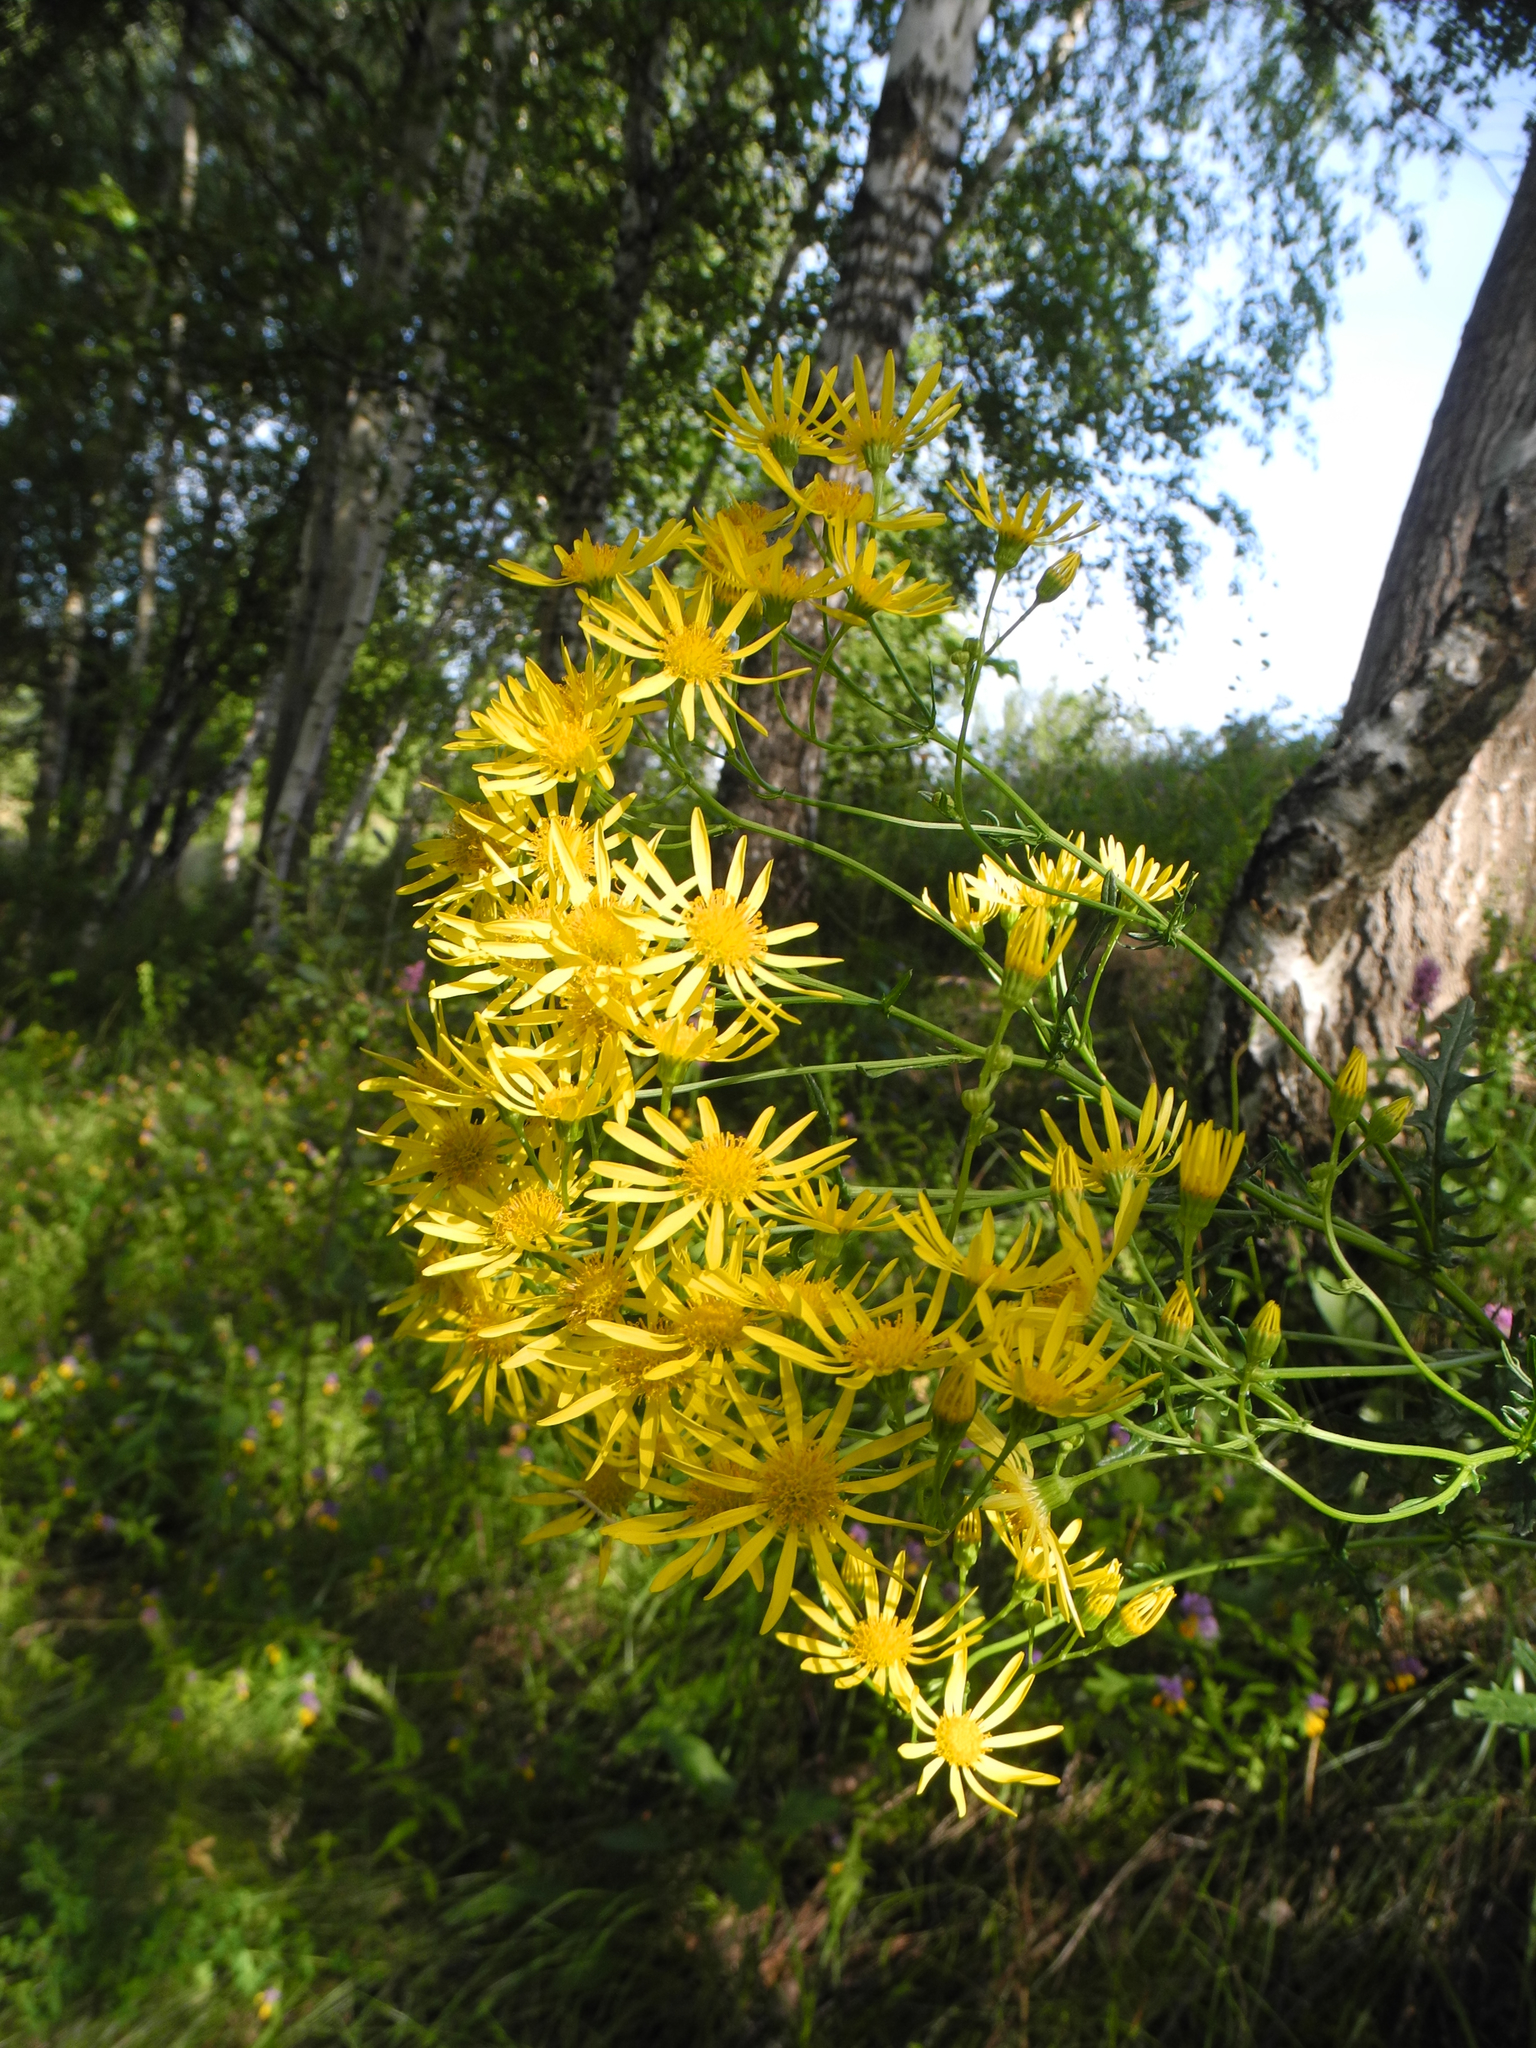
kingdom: Plantae
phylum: Tracheophyta
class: Magnoliopsida
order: Asterales
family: Asteraceae
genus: Jacobaea
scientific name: Jacobaea vulgaris
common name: Stinking willie
